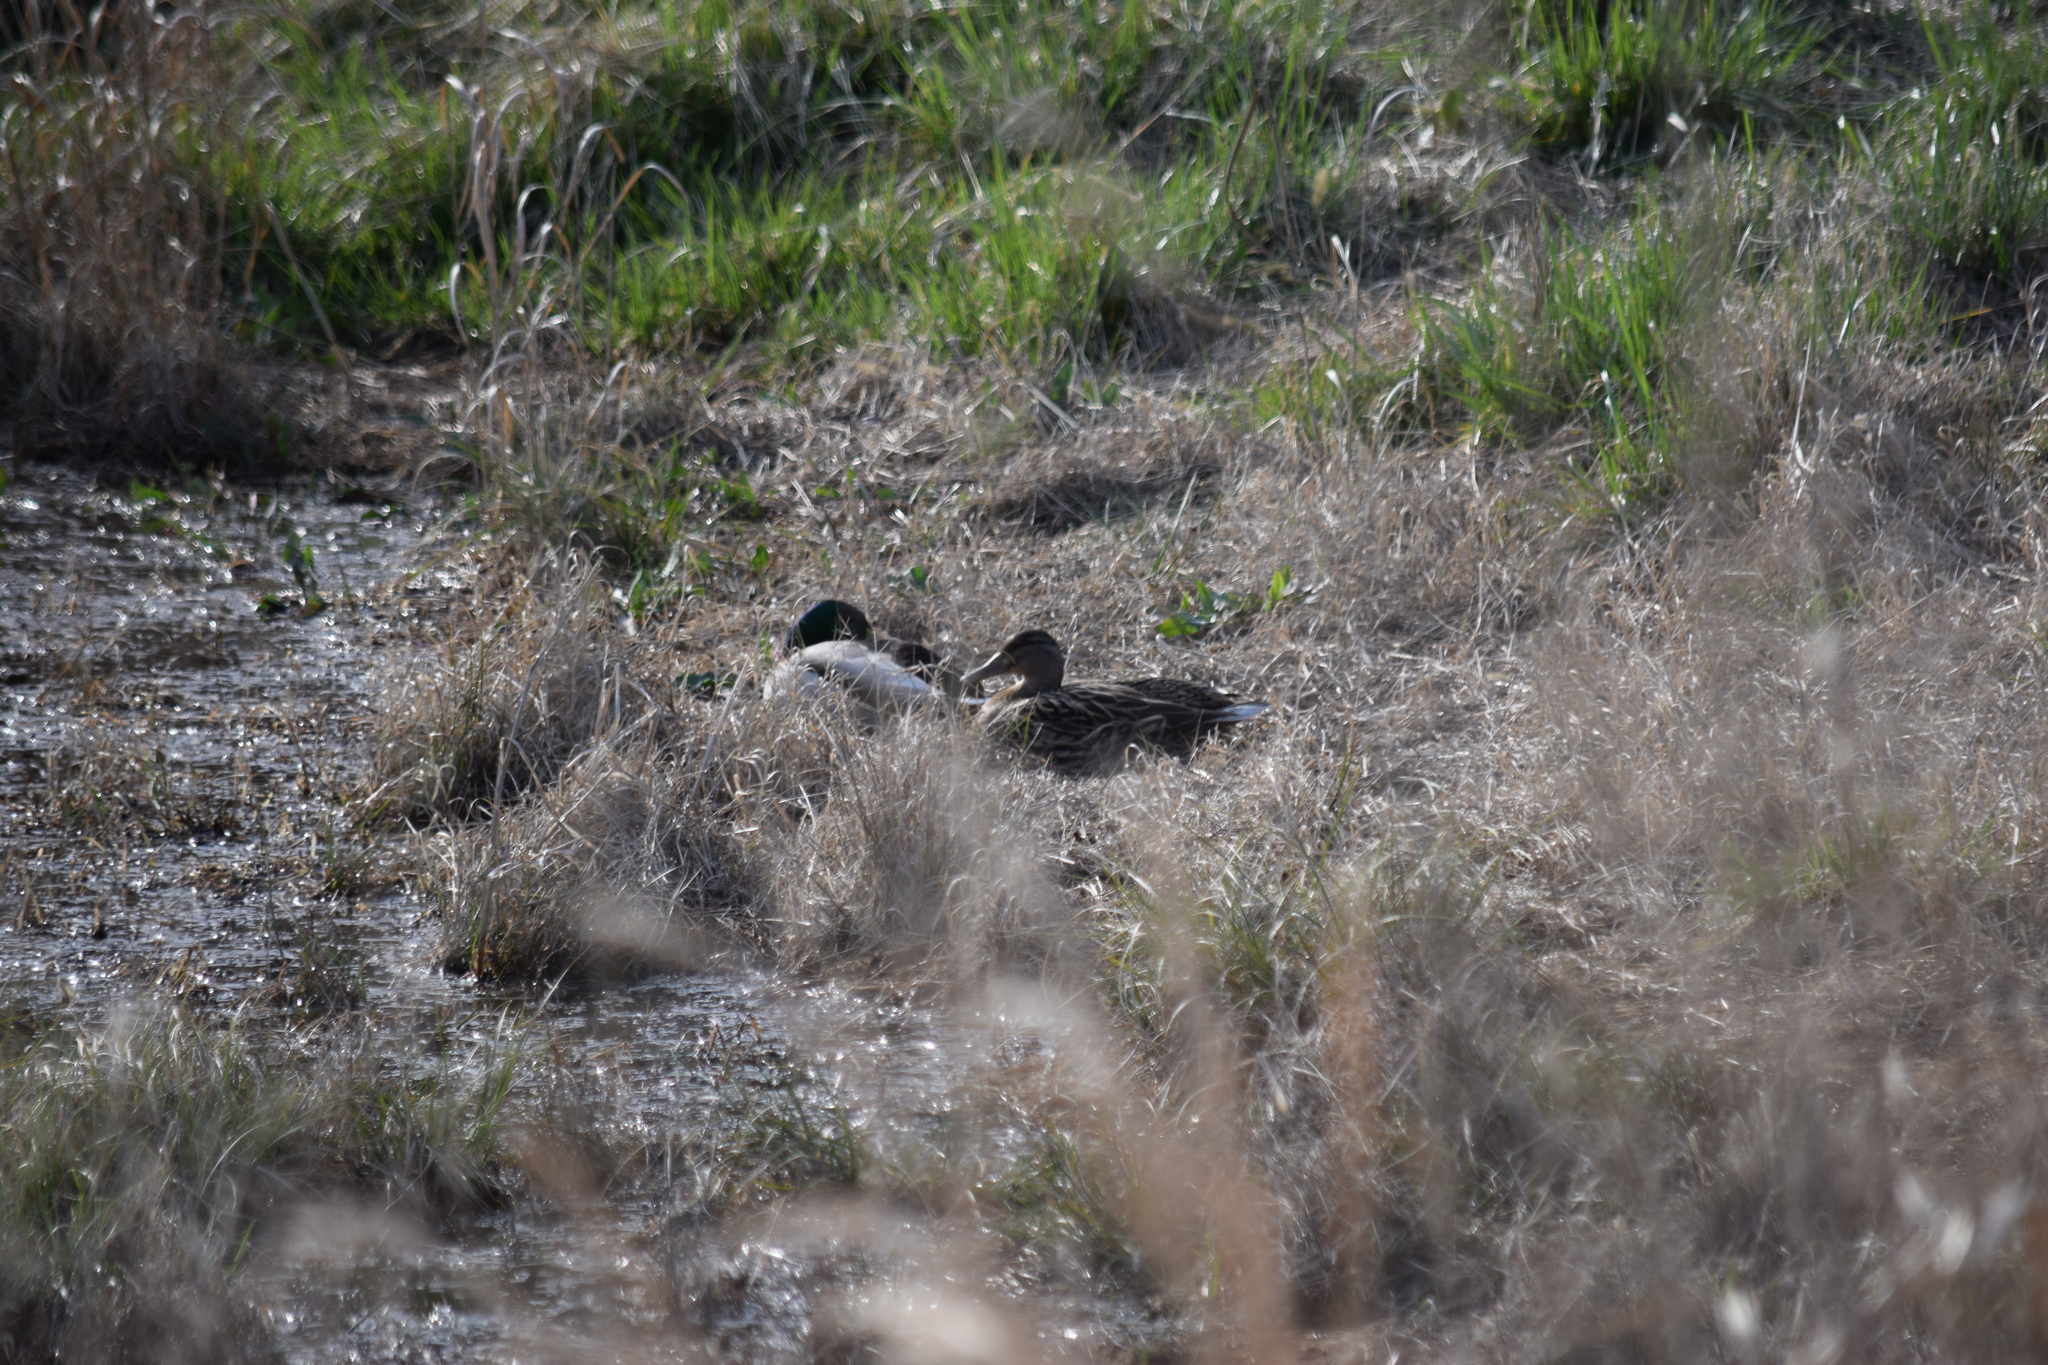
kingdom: Animalia
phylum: Chordata
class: Aves
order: Anseriformes
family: Anatidae
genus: Anas
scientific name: Anas platyrhynchos
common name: Mallard
